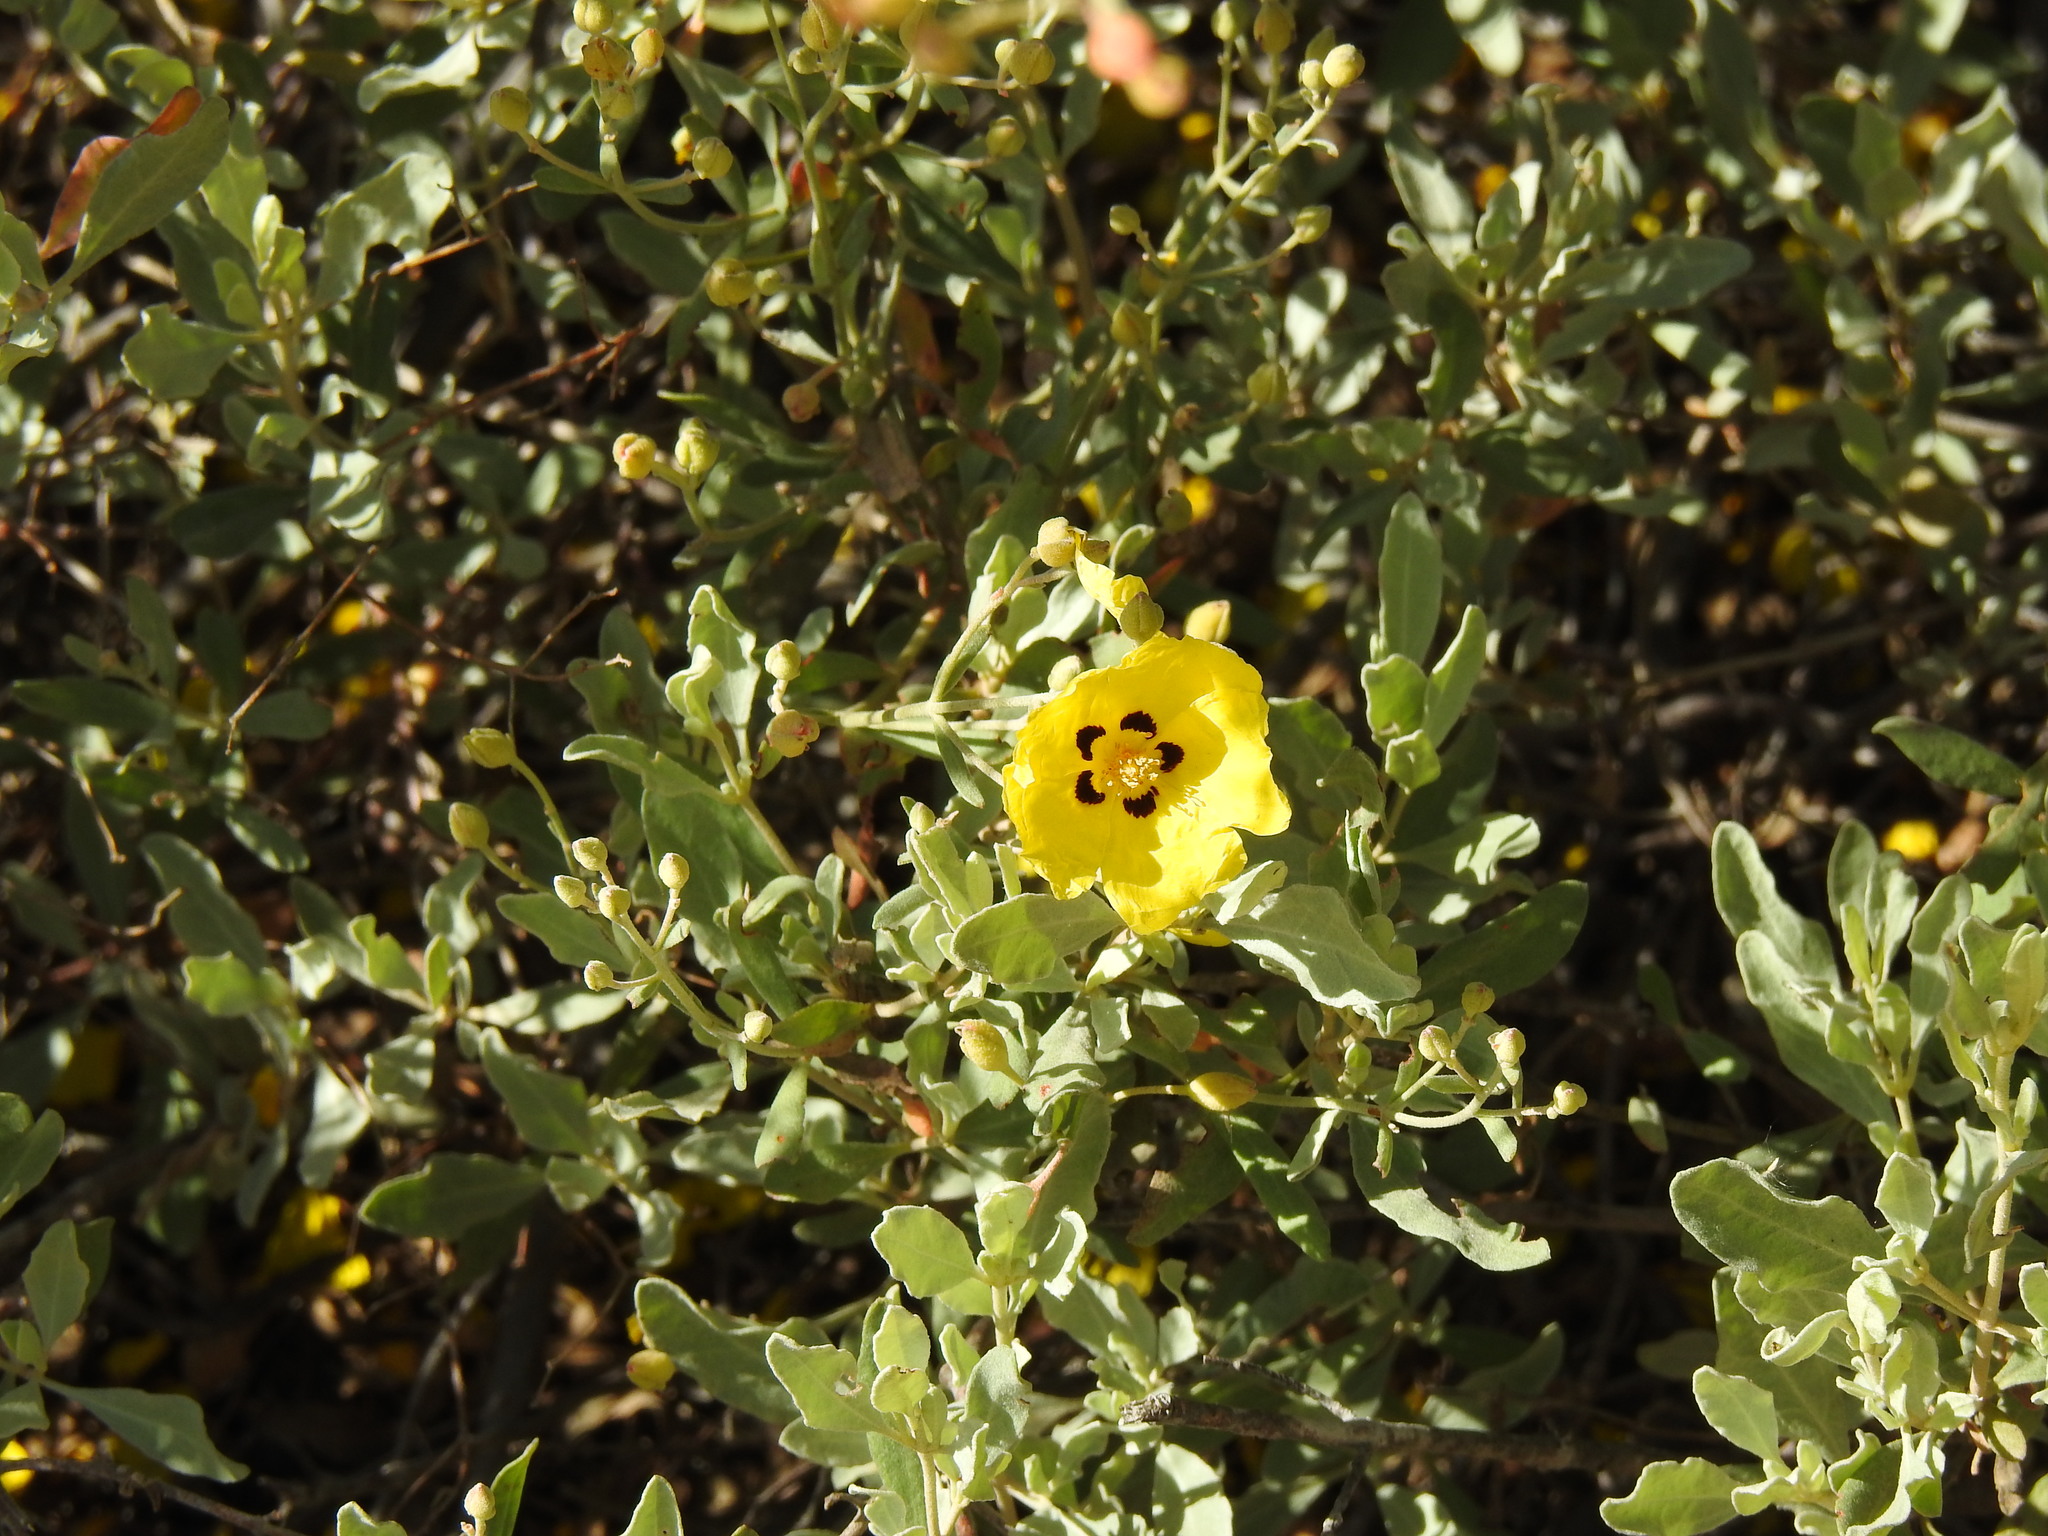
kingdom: Plantae
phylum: Tracheophyta
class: Magnoliopsida
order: Malvales
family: Cistaceae
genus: Halimium
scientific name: Halimium halimifolium
